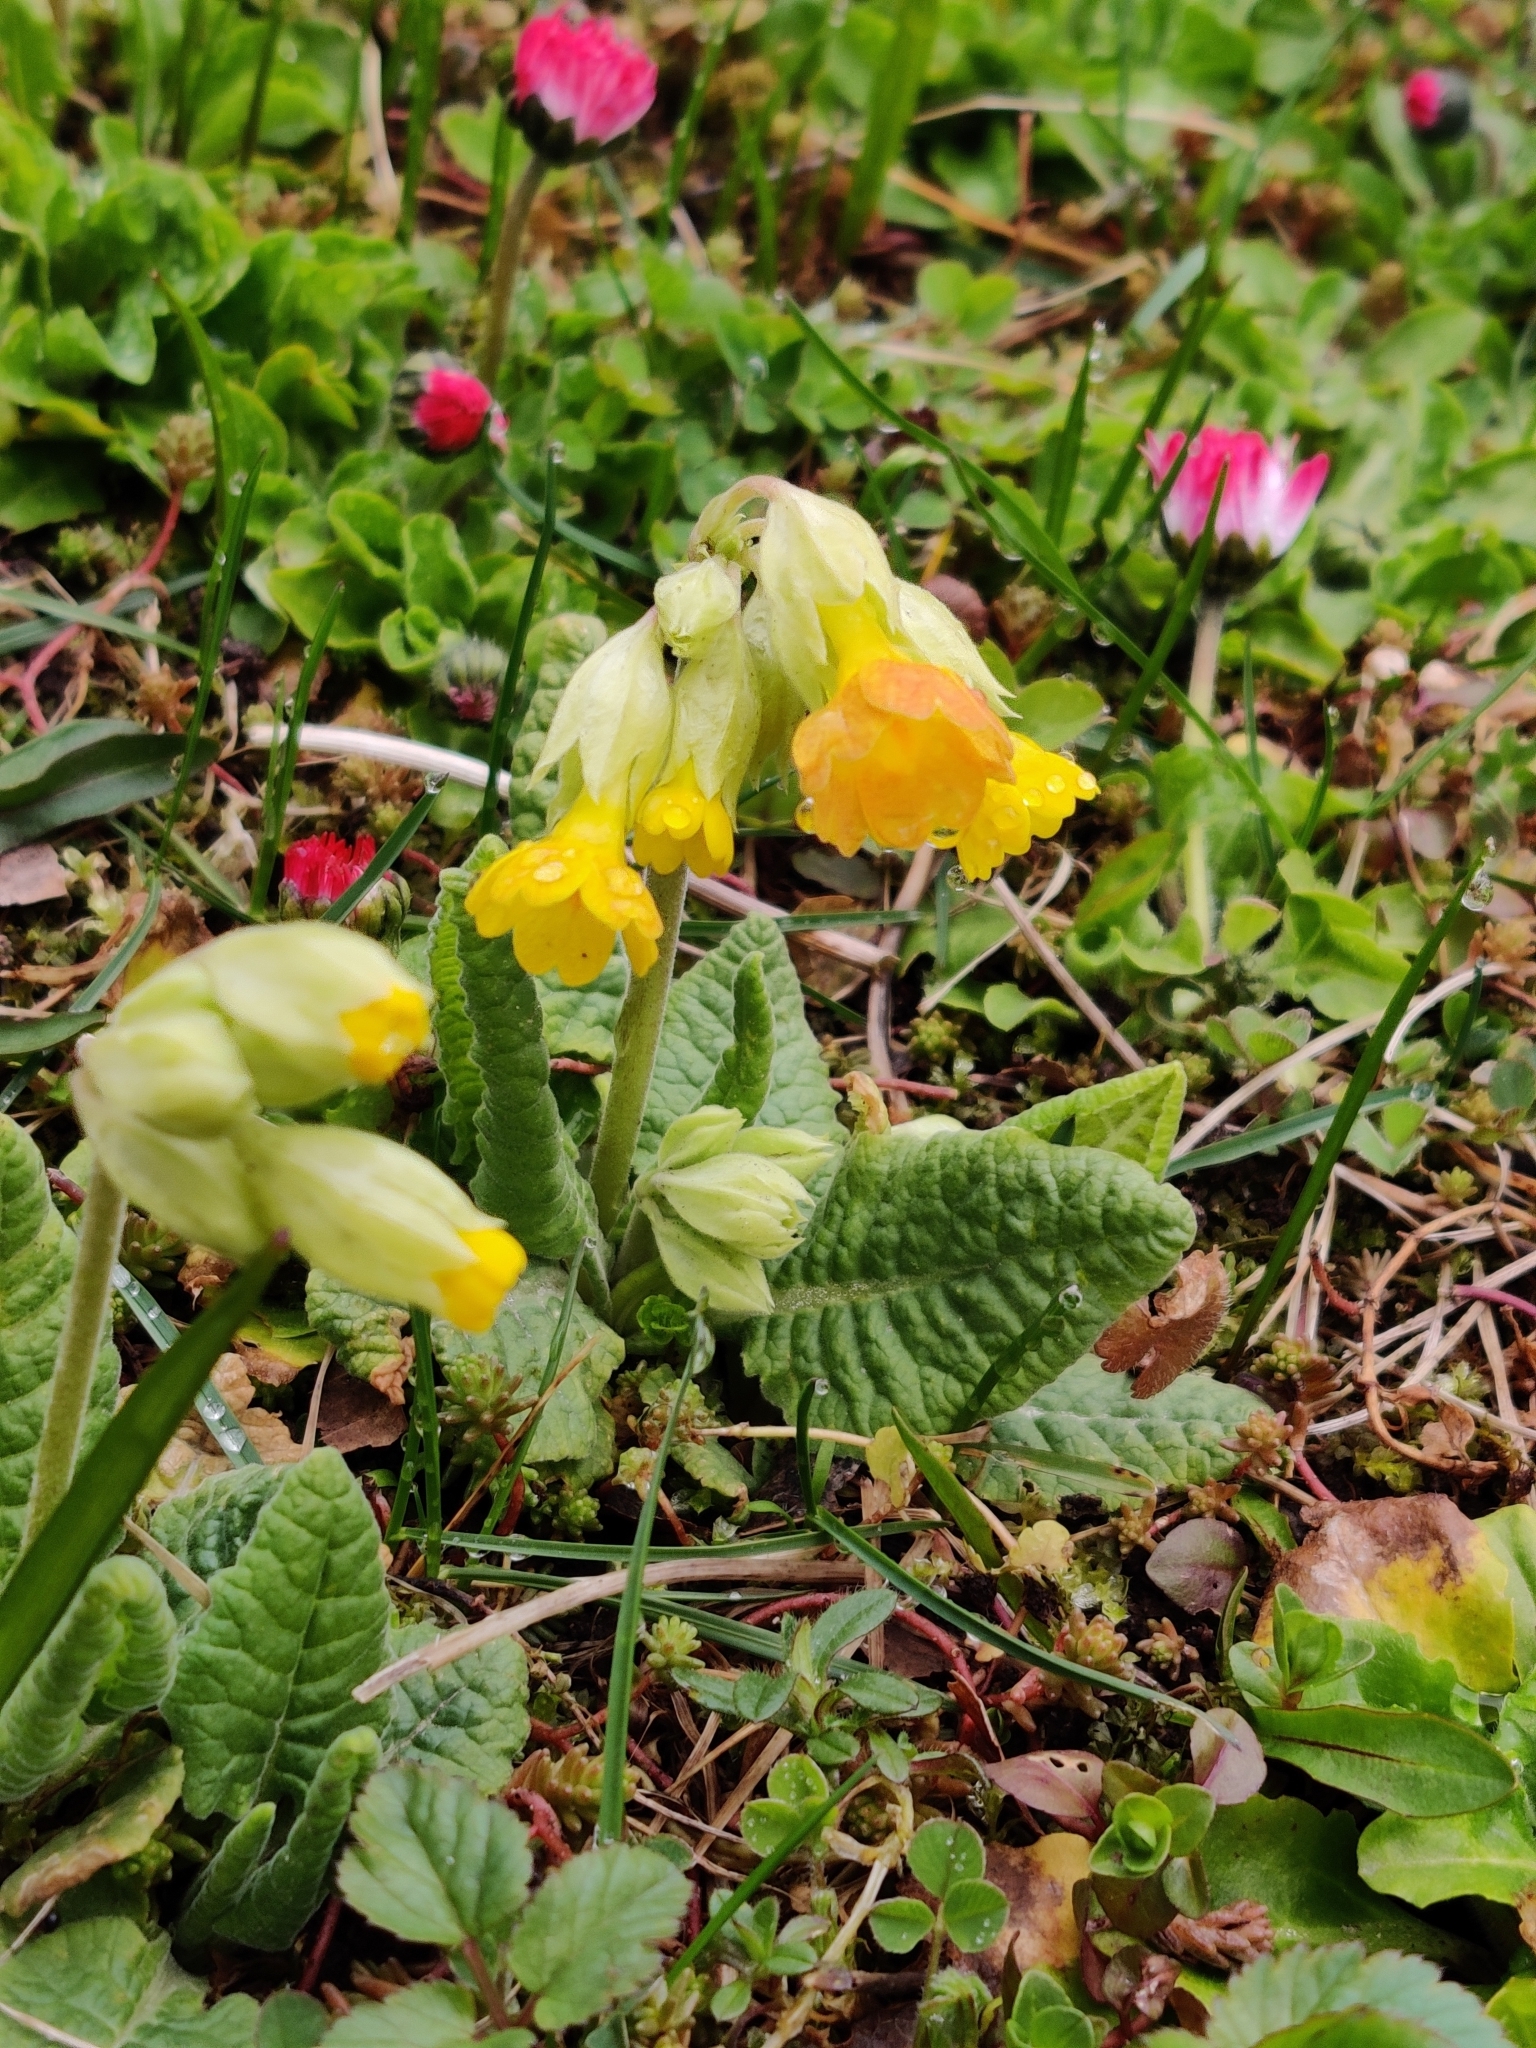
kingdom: Plantae
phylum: Tracheophyta
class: Magnoliopsida
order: Ericales
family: Primulaceae
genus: Primula
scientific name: Primula veris
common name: Cowslip
